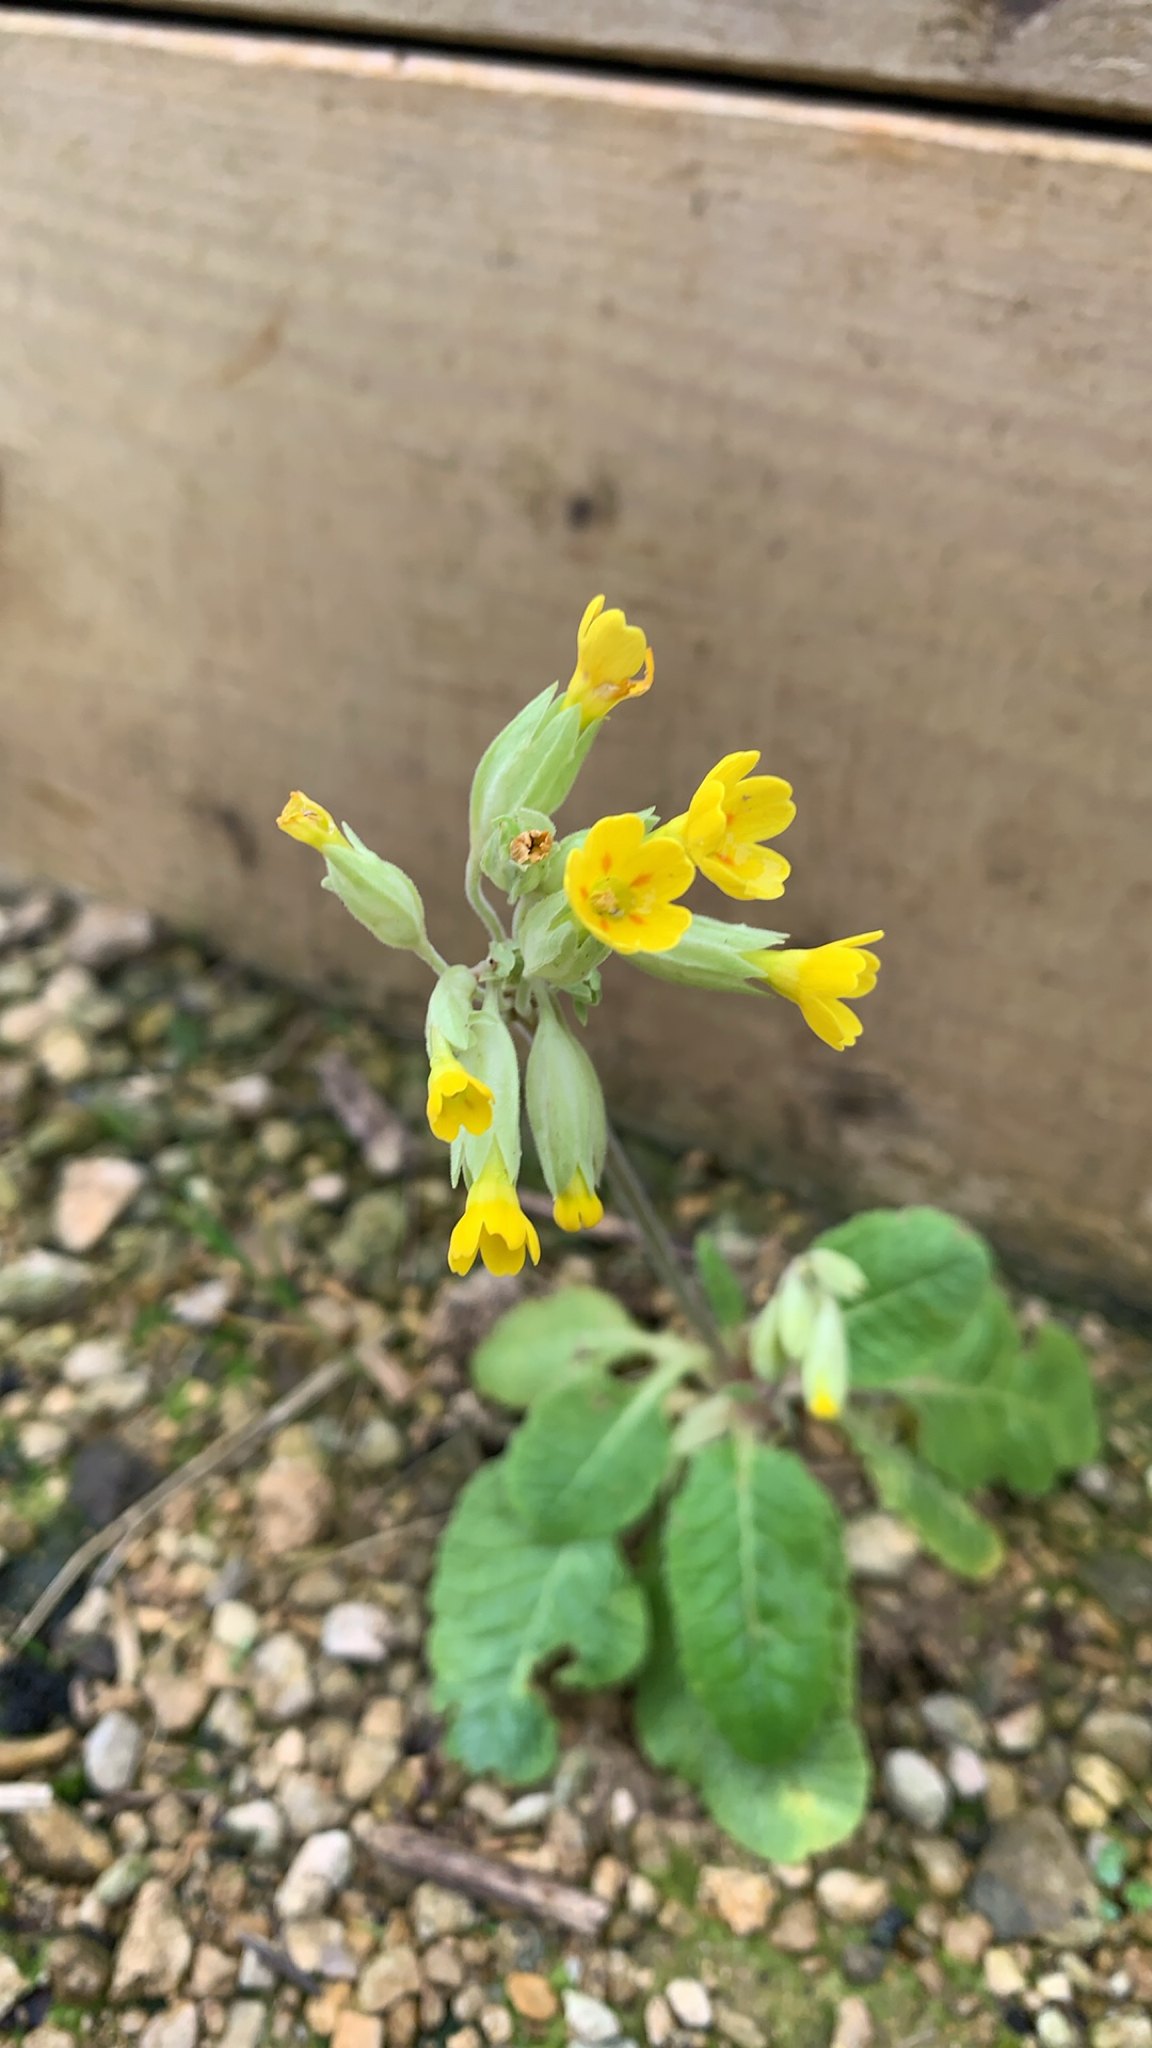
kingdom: Plantae
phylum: Tracheophyta
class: Magnoliopsida
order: Ericales
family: Primulaceae
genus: Primula
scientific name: Primula veris
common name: Cowslip
